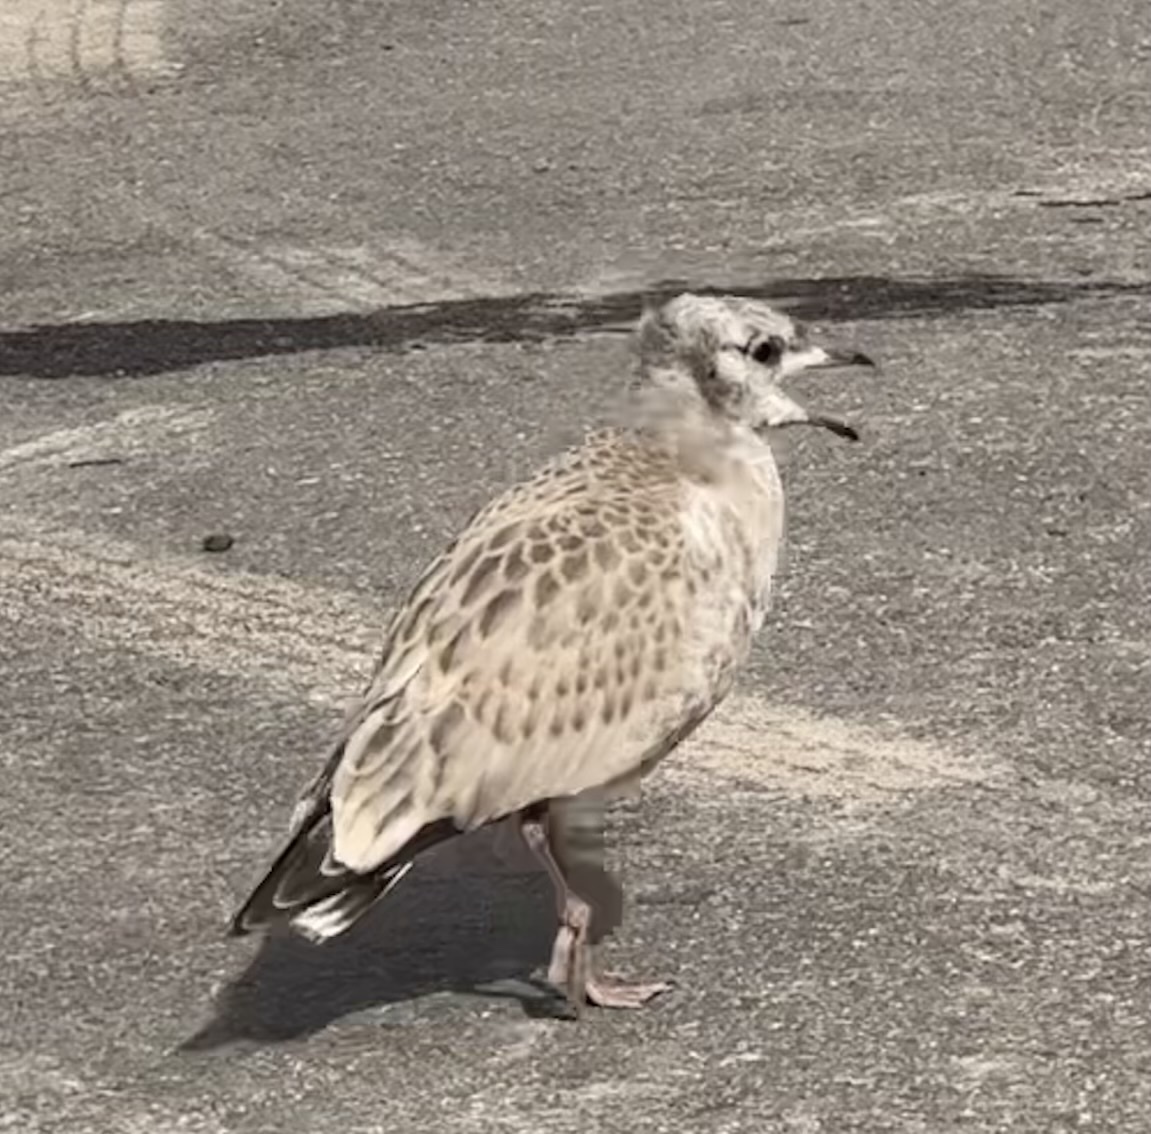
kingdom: Animalia
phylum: Chordata
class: Aves
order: Charadriiformes
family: Laridae
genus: Larus
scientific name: Larus canus
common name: Mew gull
